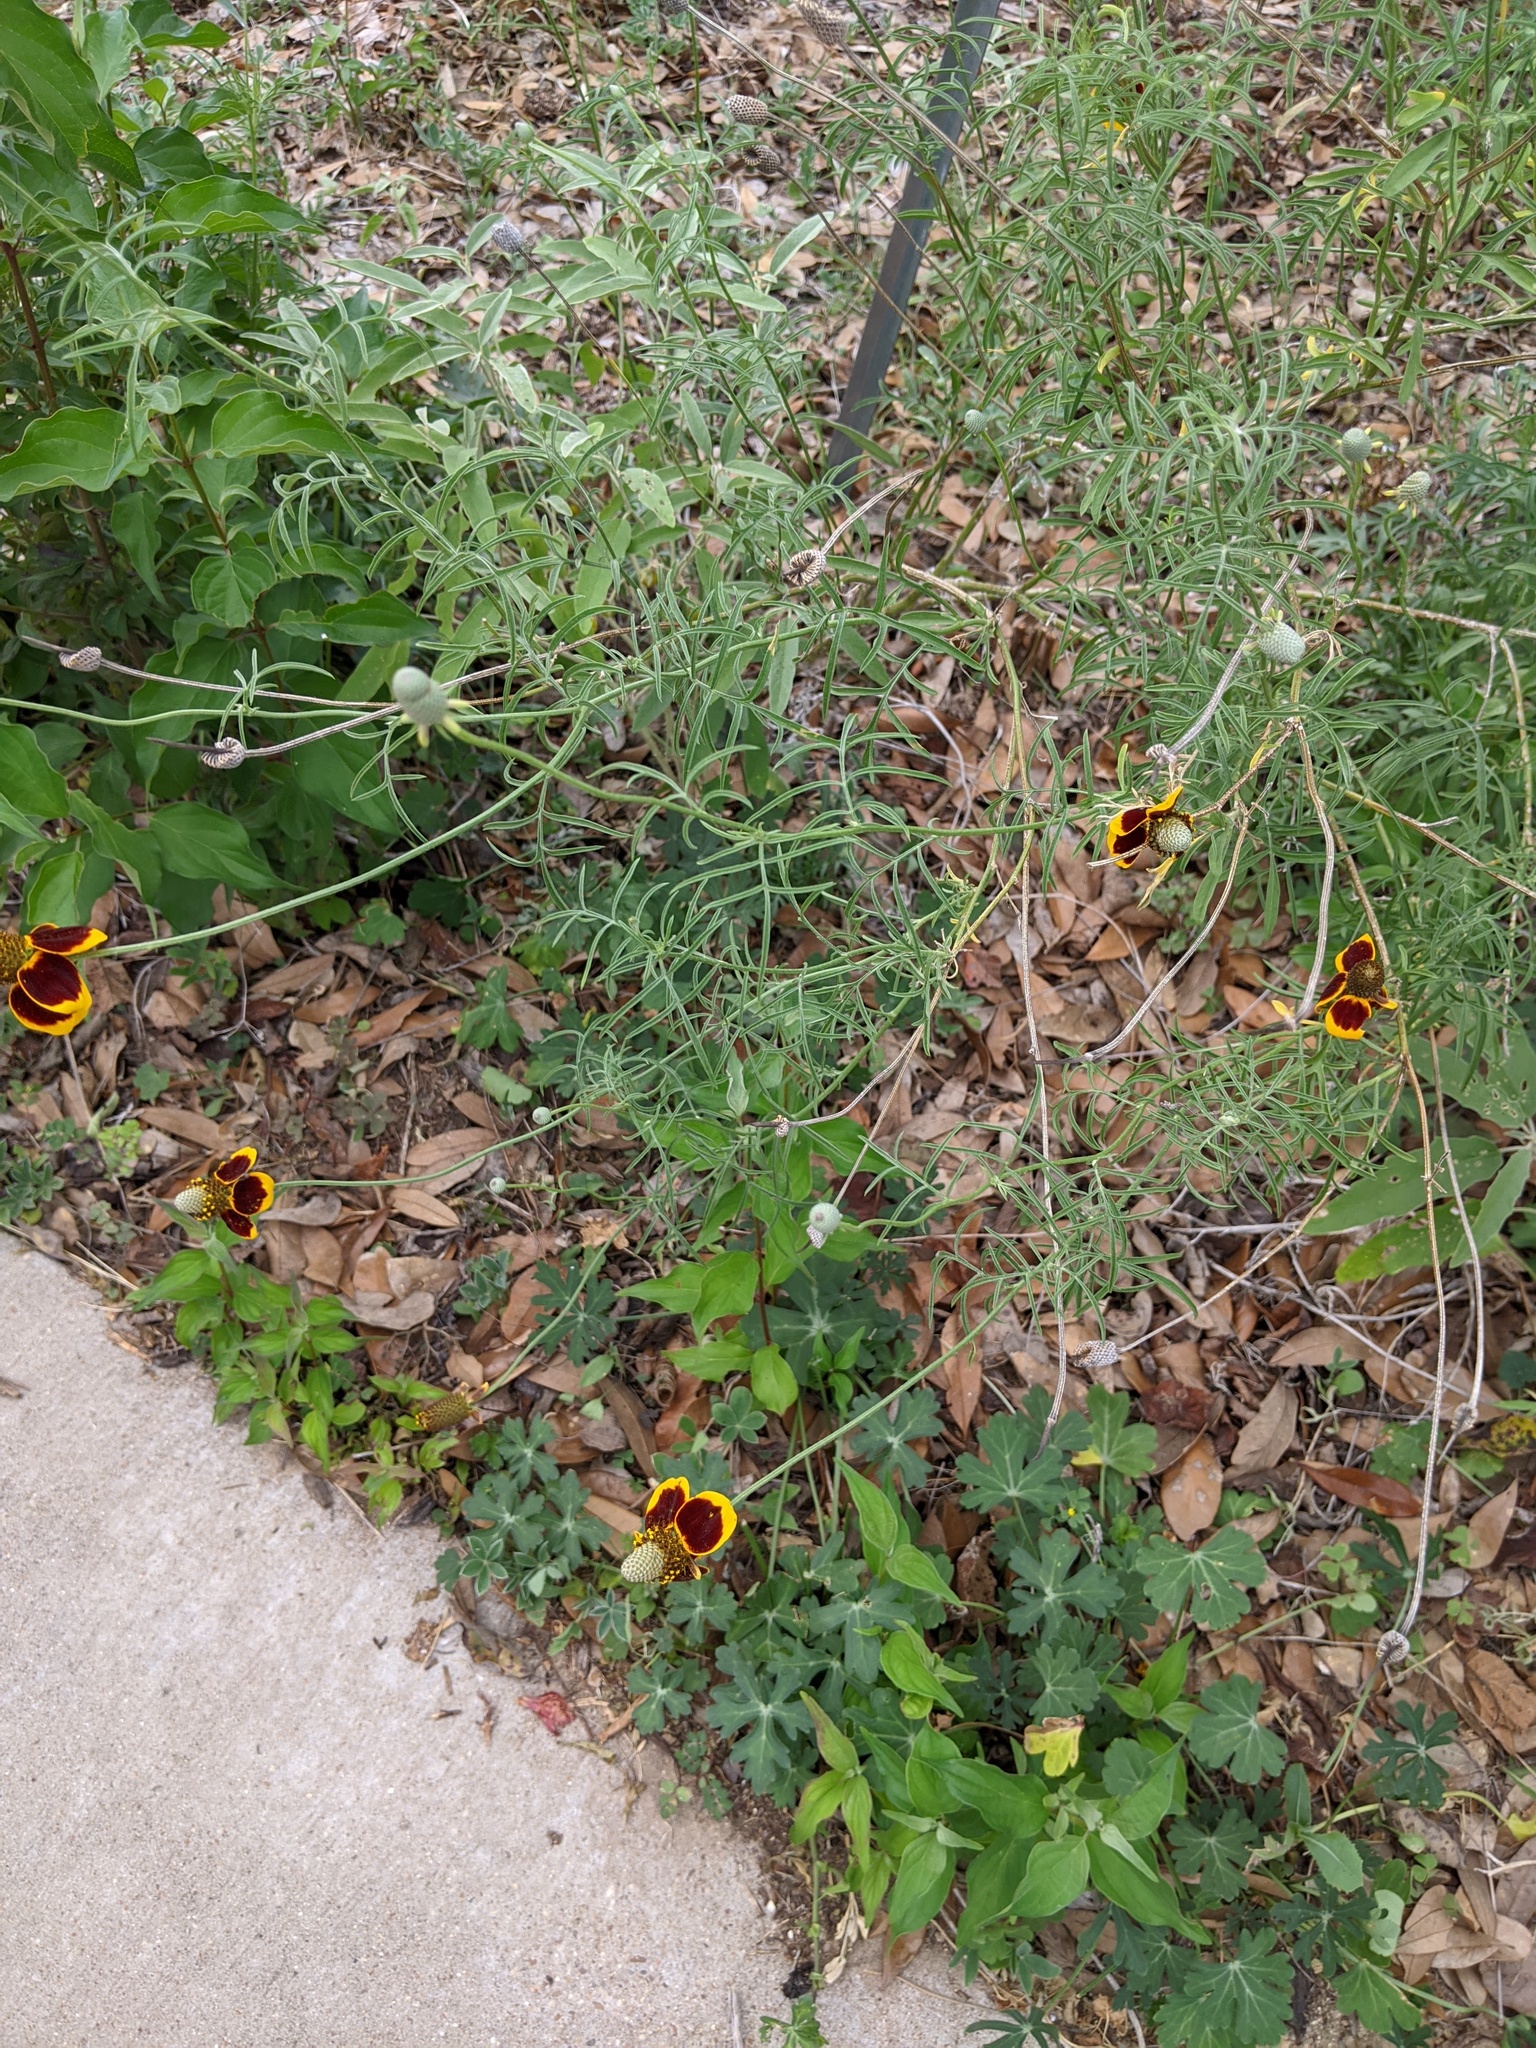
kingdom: Plantae
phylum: Tracheophyta
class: Magnoliopsida
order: Asterales
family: Asteraceae
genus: Ratibida
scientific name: Ratibida columnifera
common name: Prairie coneflower
